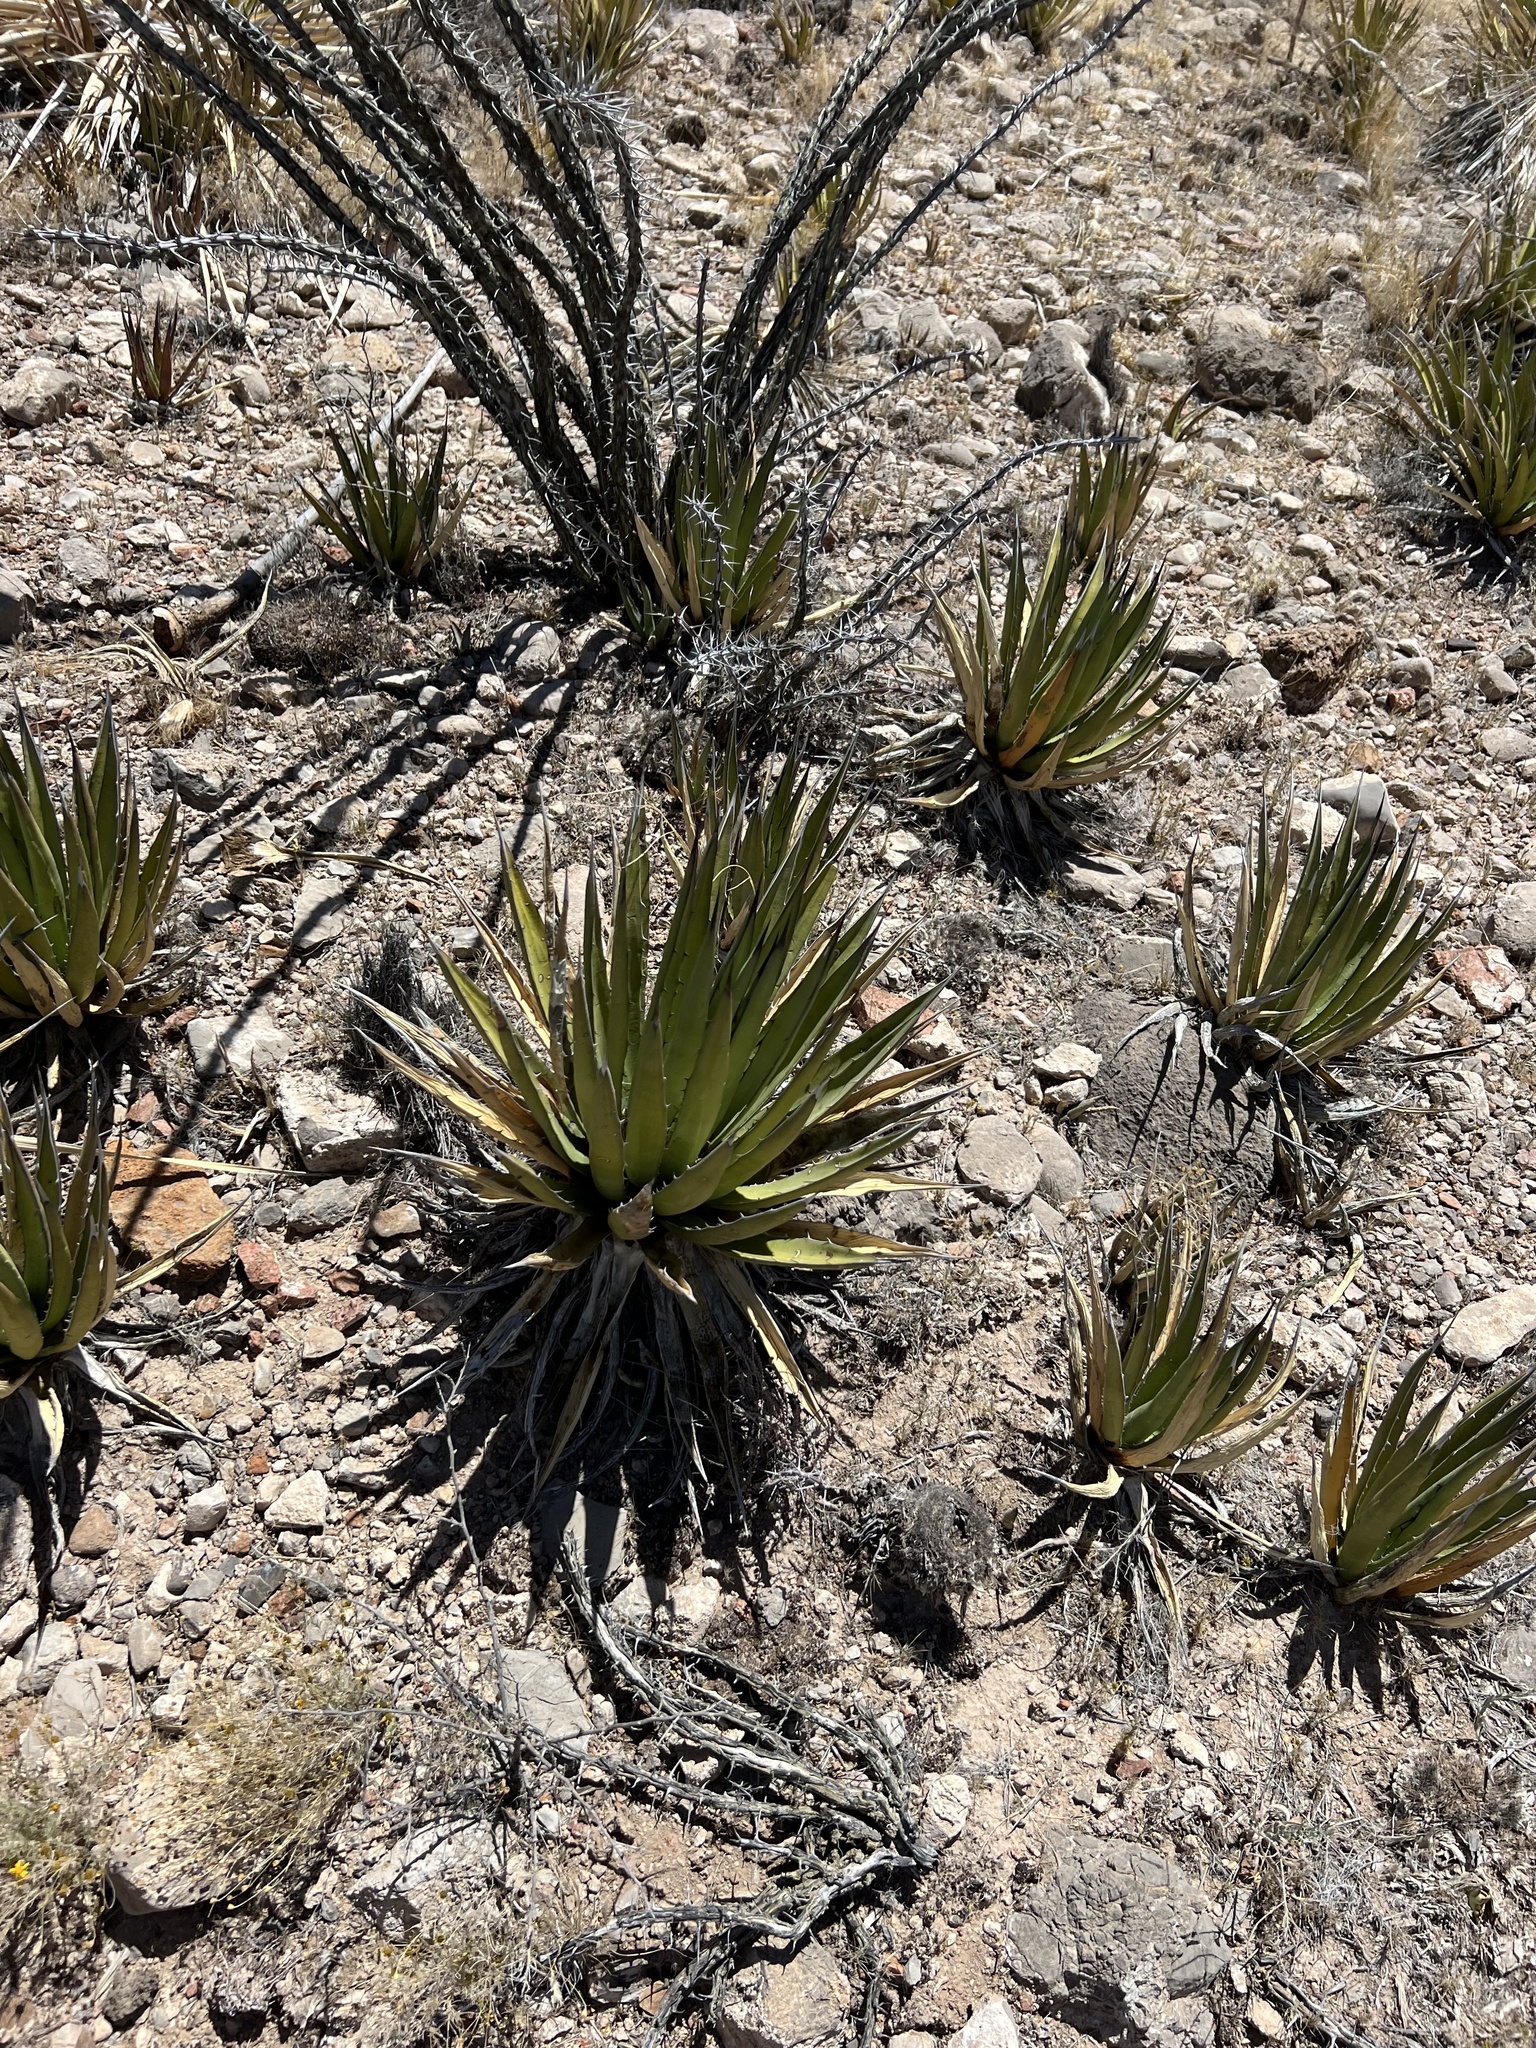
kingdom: Plantae
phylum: Tracheophyta
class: Liliopsida
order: Asparagales
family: Asparagaceae
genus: Agave
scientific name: Agave lechuguilla
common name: Lecheguilla agave
